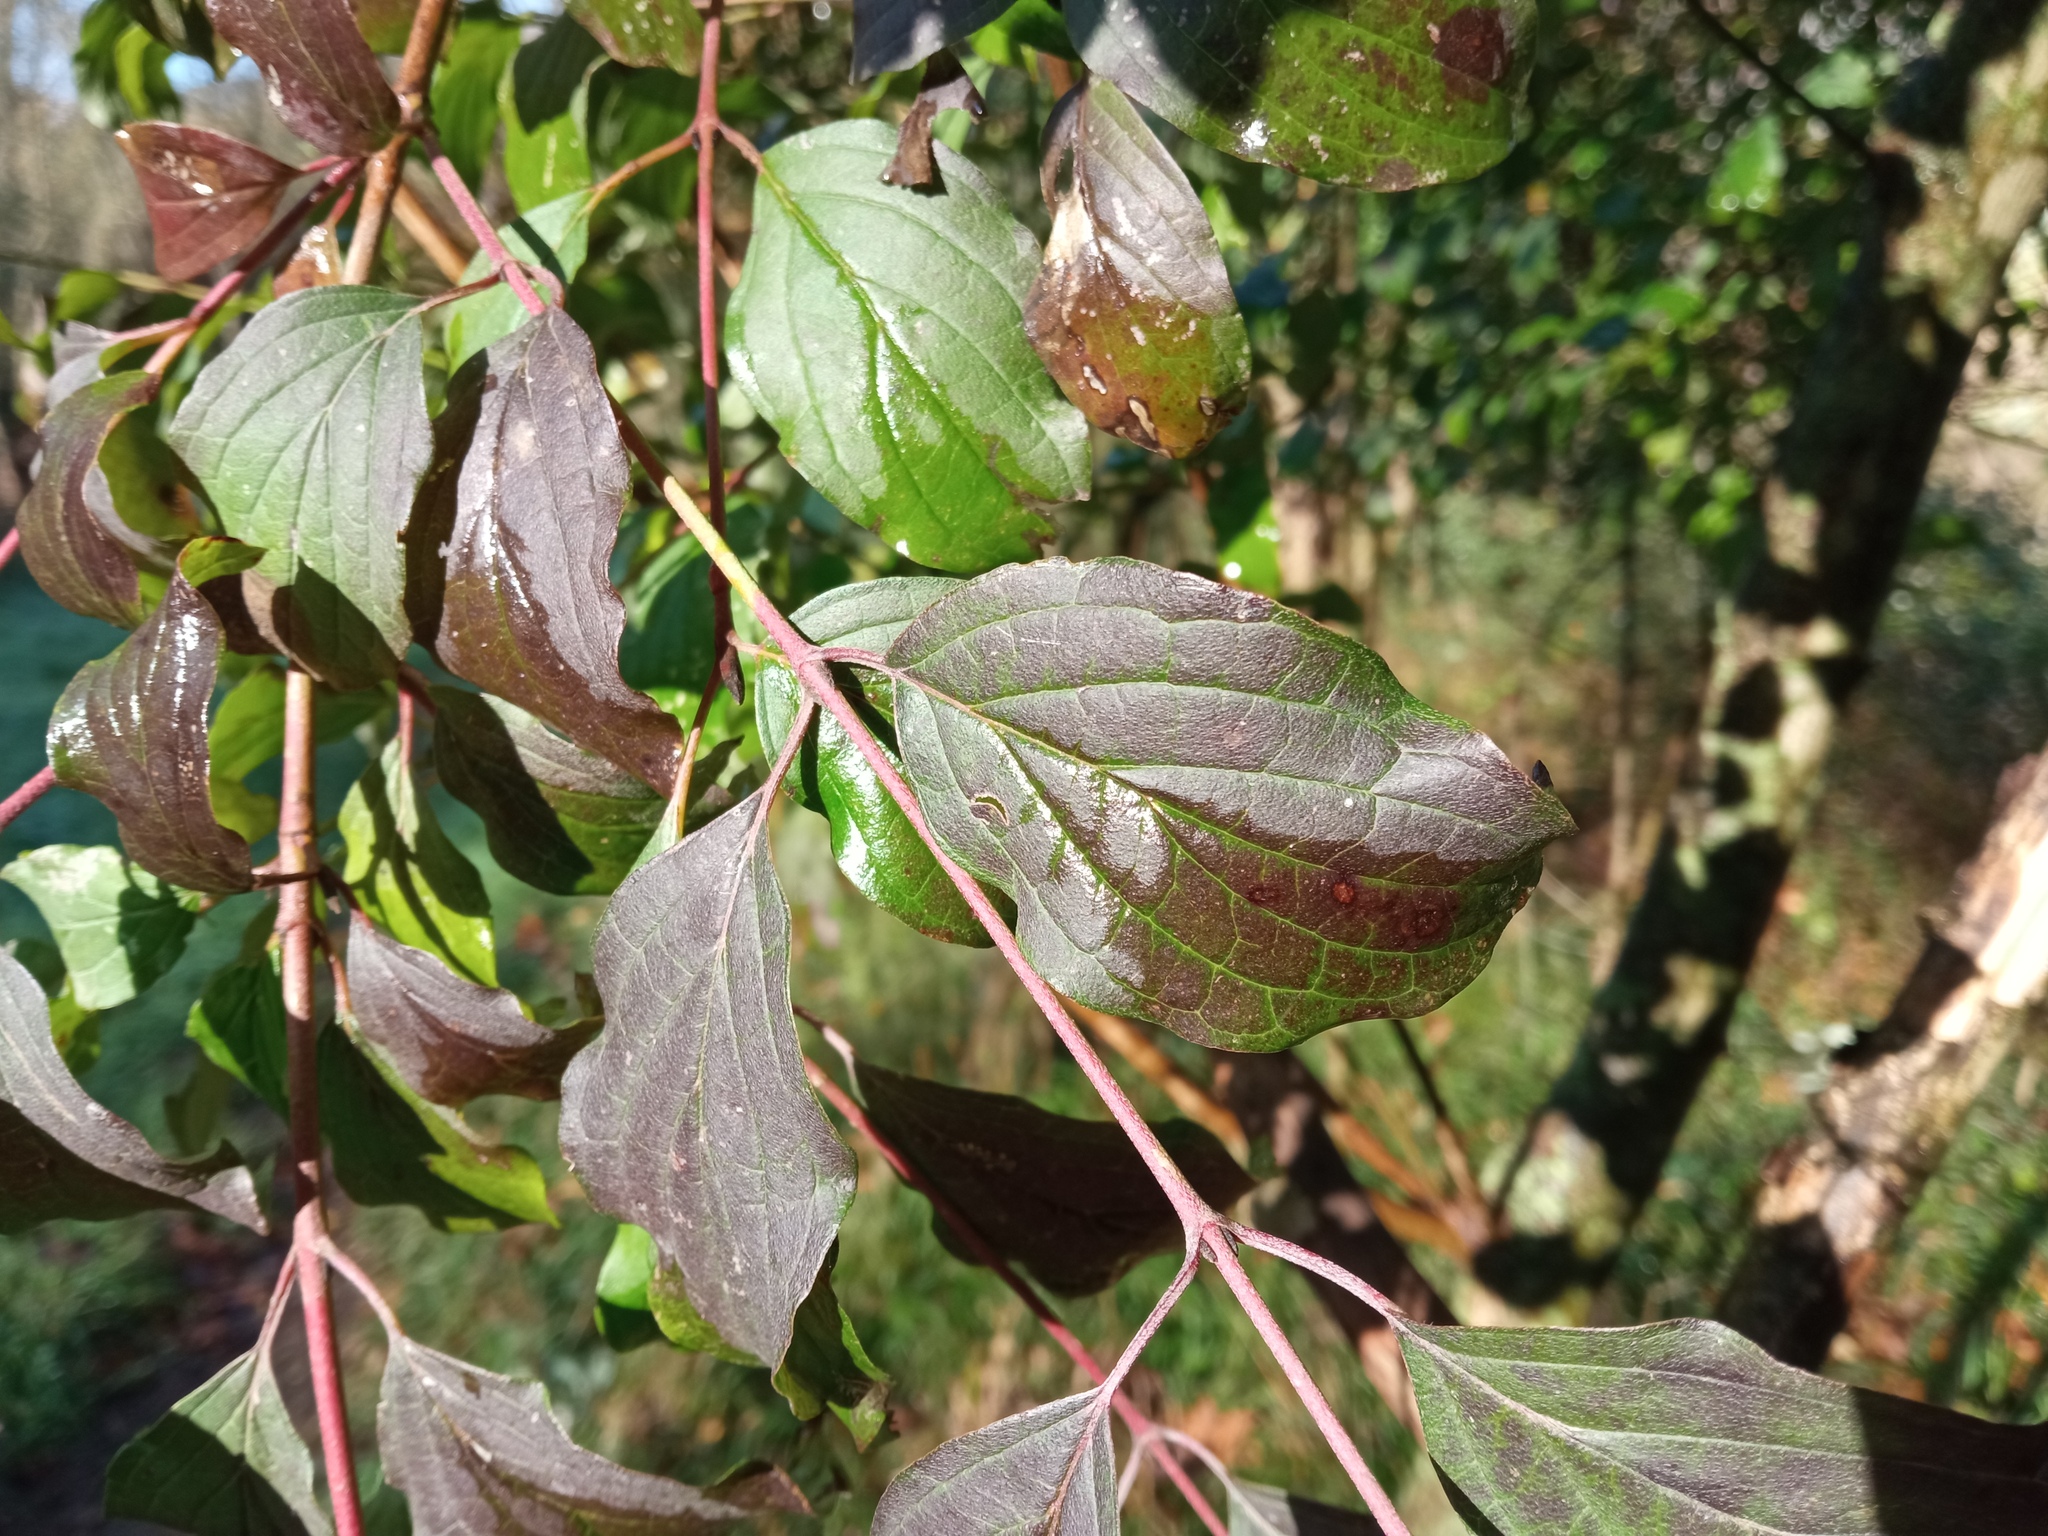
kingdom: Plantae
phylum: Tracheophyta
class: Magnoliopsida
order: Cornales
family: Cornaceae
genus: Cornus
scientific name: Cornus sanguinea
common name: Dogwood
